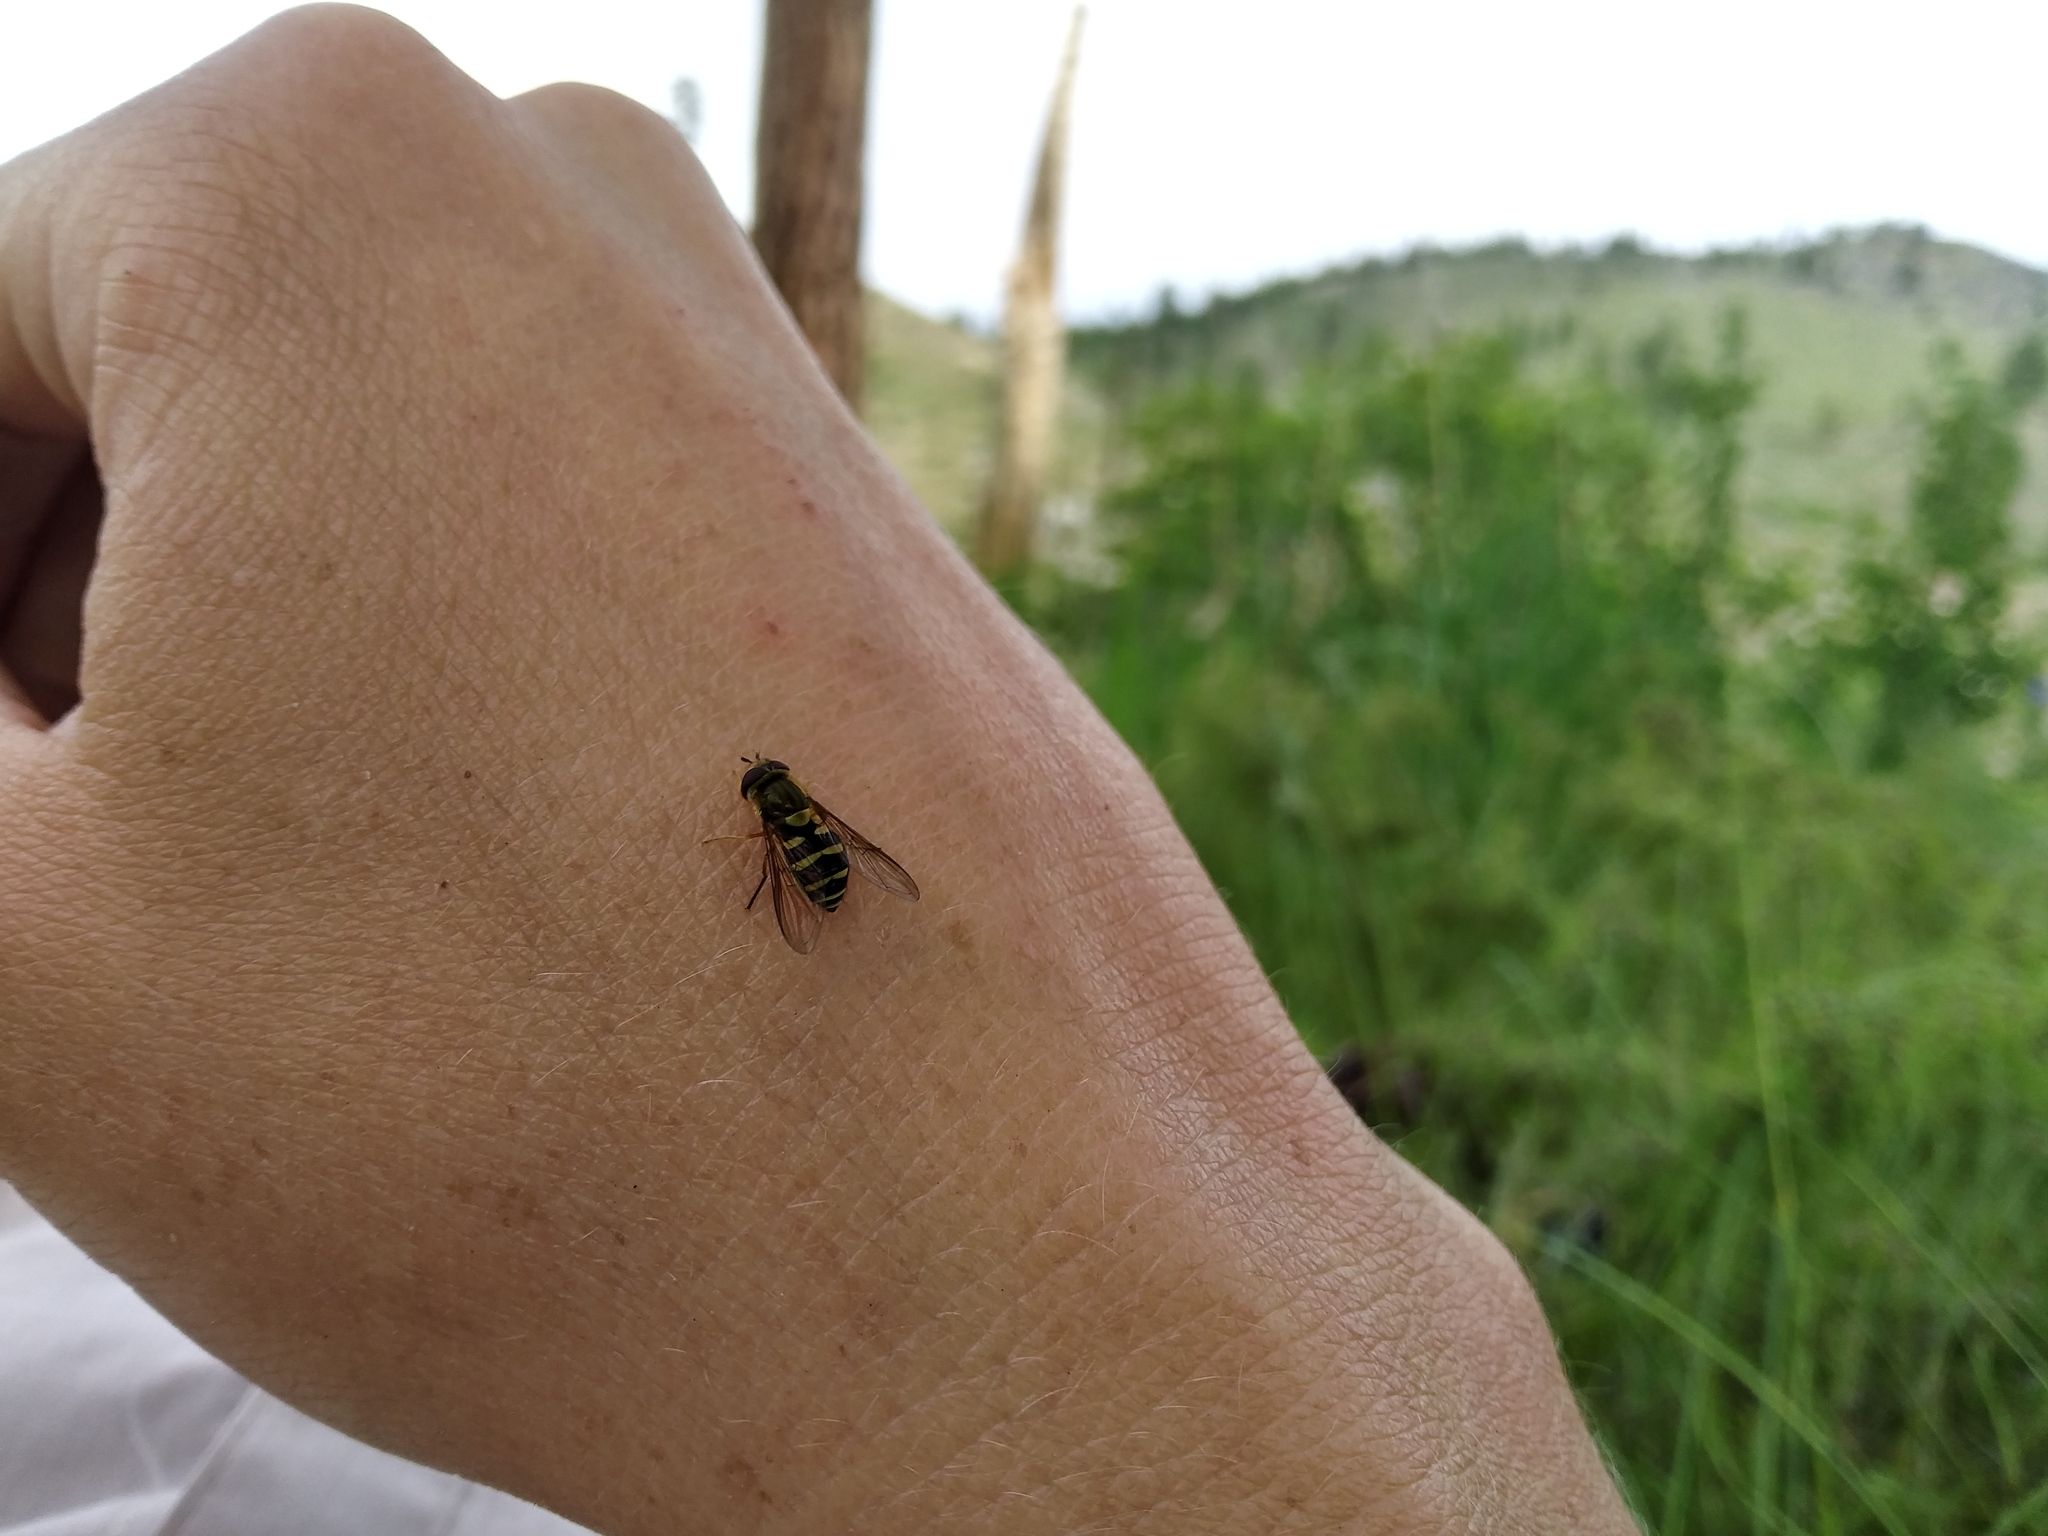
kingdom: Animalia
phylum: Arthropoda
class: Insecta
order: Diptera
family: Syrphidae
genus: Syrphus
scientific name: Syrphus opinator
